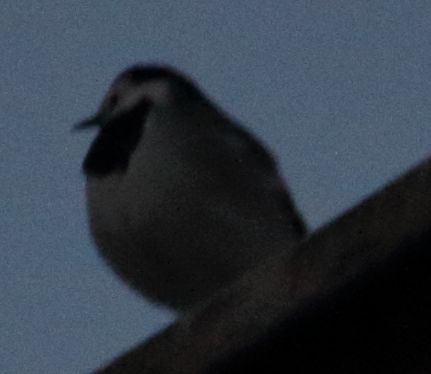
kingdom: Animalia
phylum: Chordata
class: Aves
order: Passeriformes
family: Motacillidae
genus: Motacilla
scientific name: Motacilla alba
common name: White wagtail
